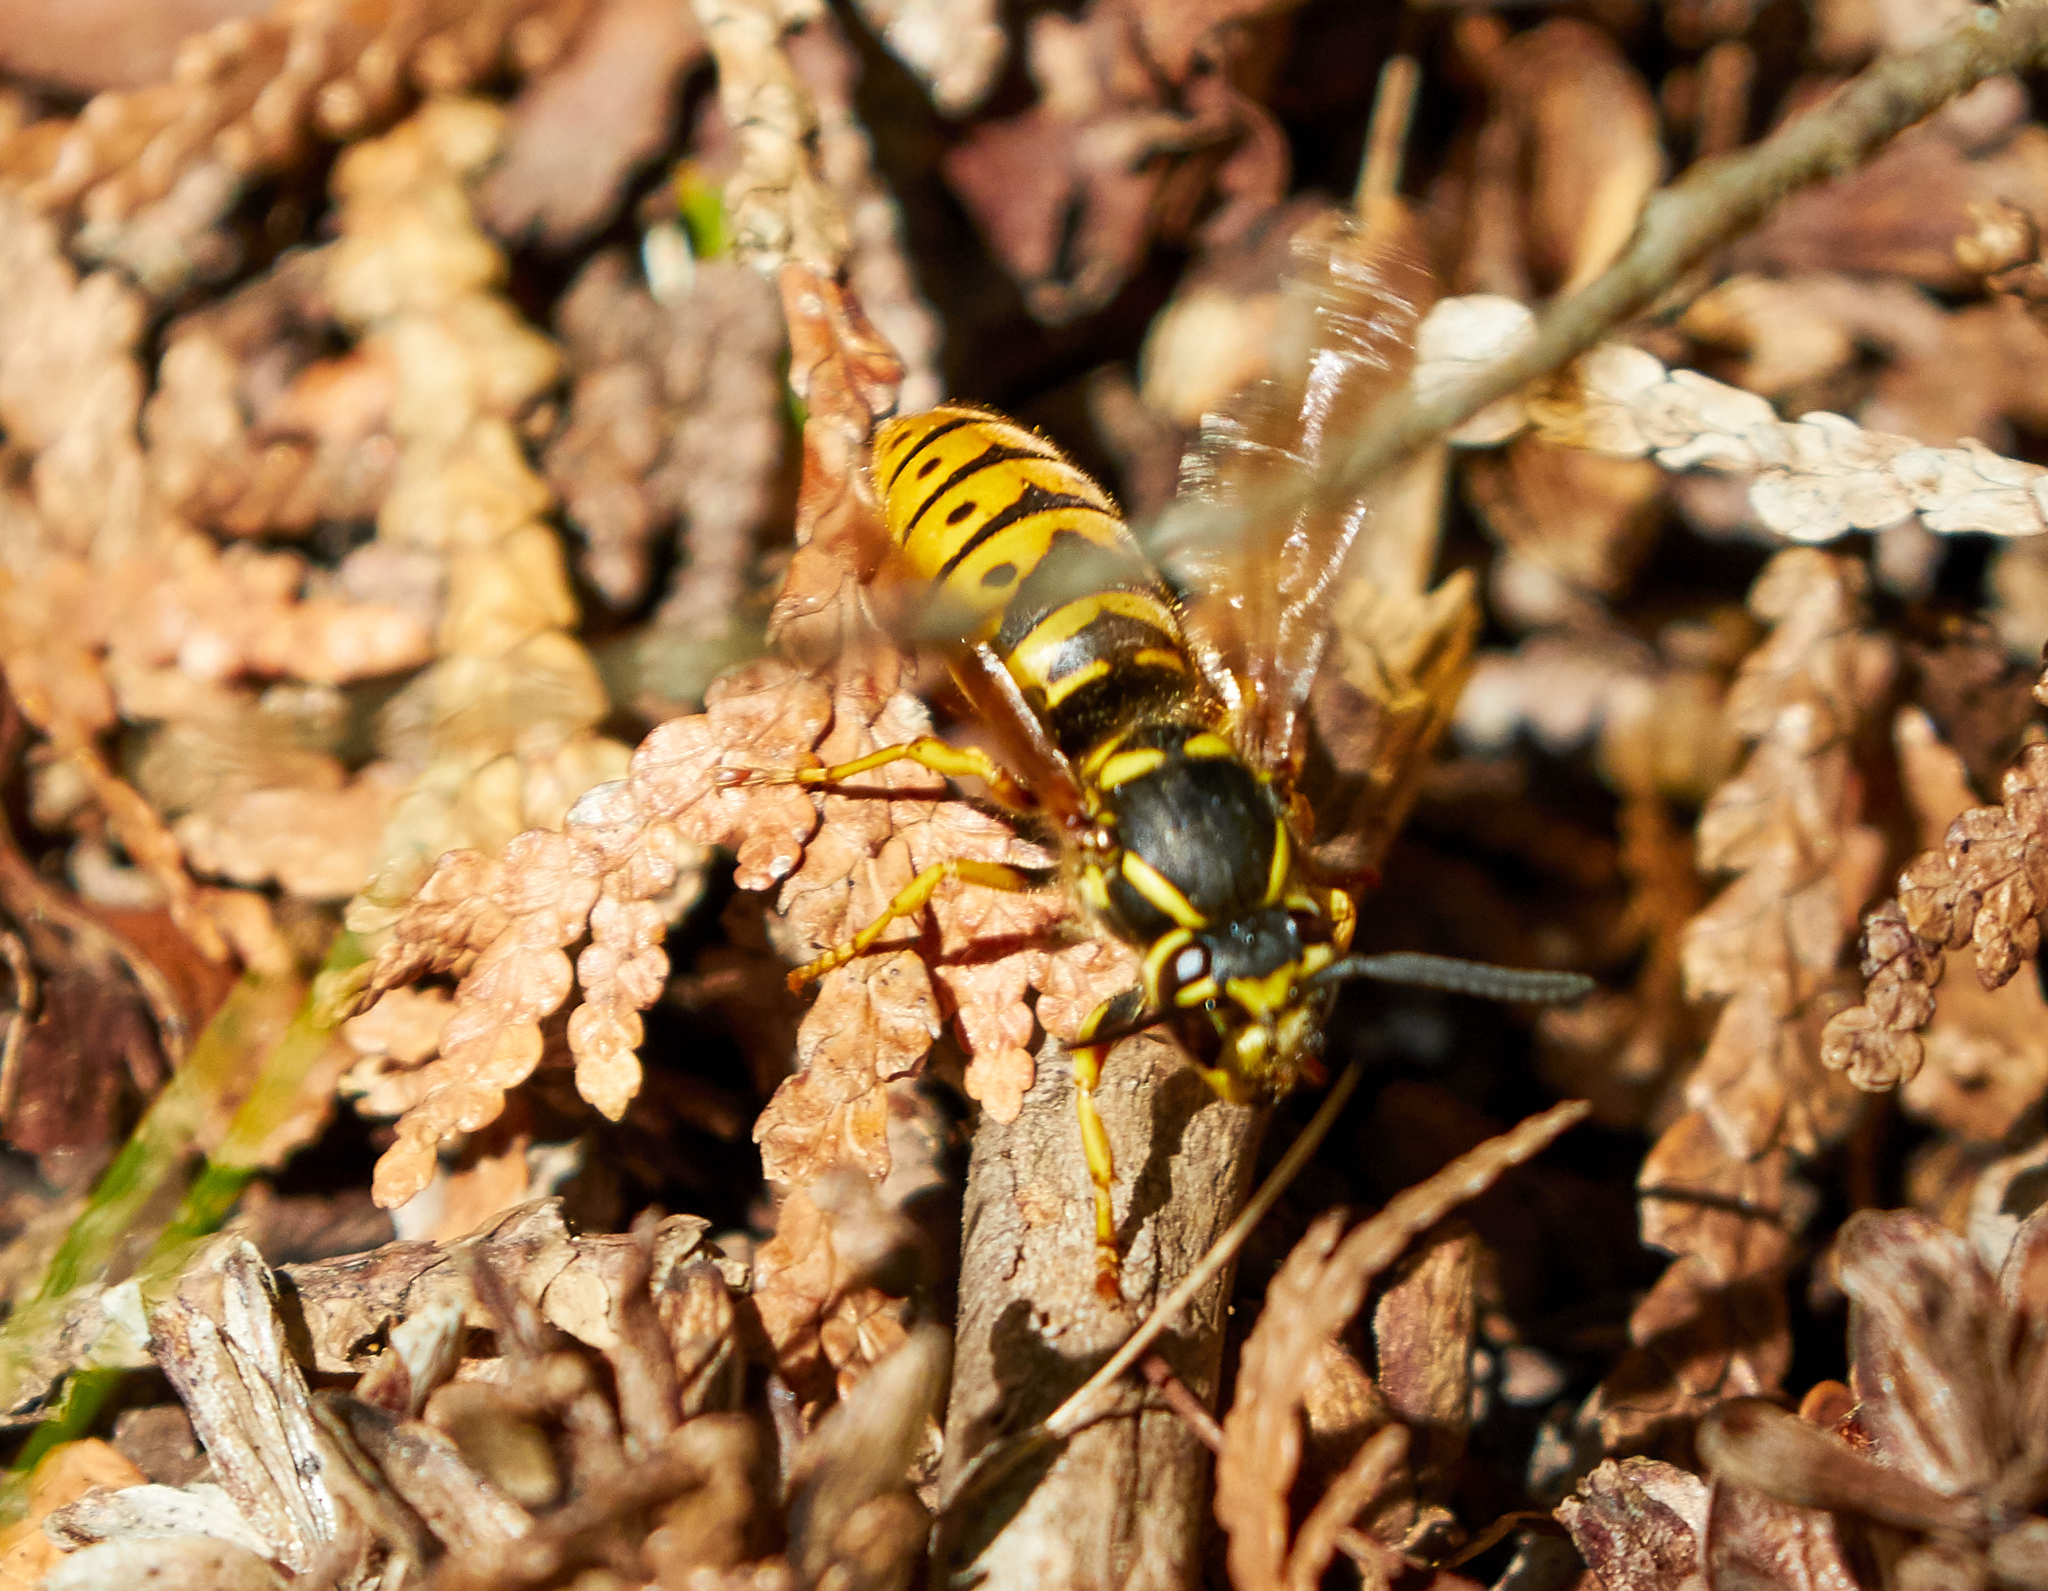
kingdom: Animalia
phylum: Arthropoda
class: Insecta
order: Hymenoptera
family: Vespidae
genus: Vespula
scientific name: Vespula maculifrons
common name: Eastern yellowjacket
